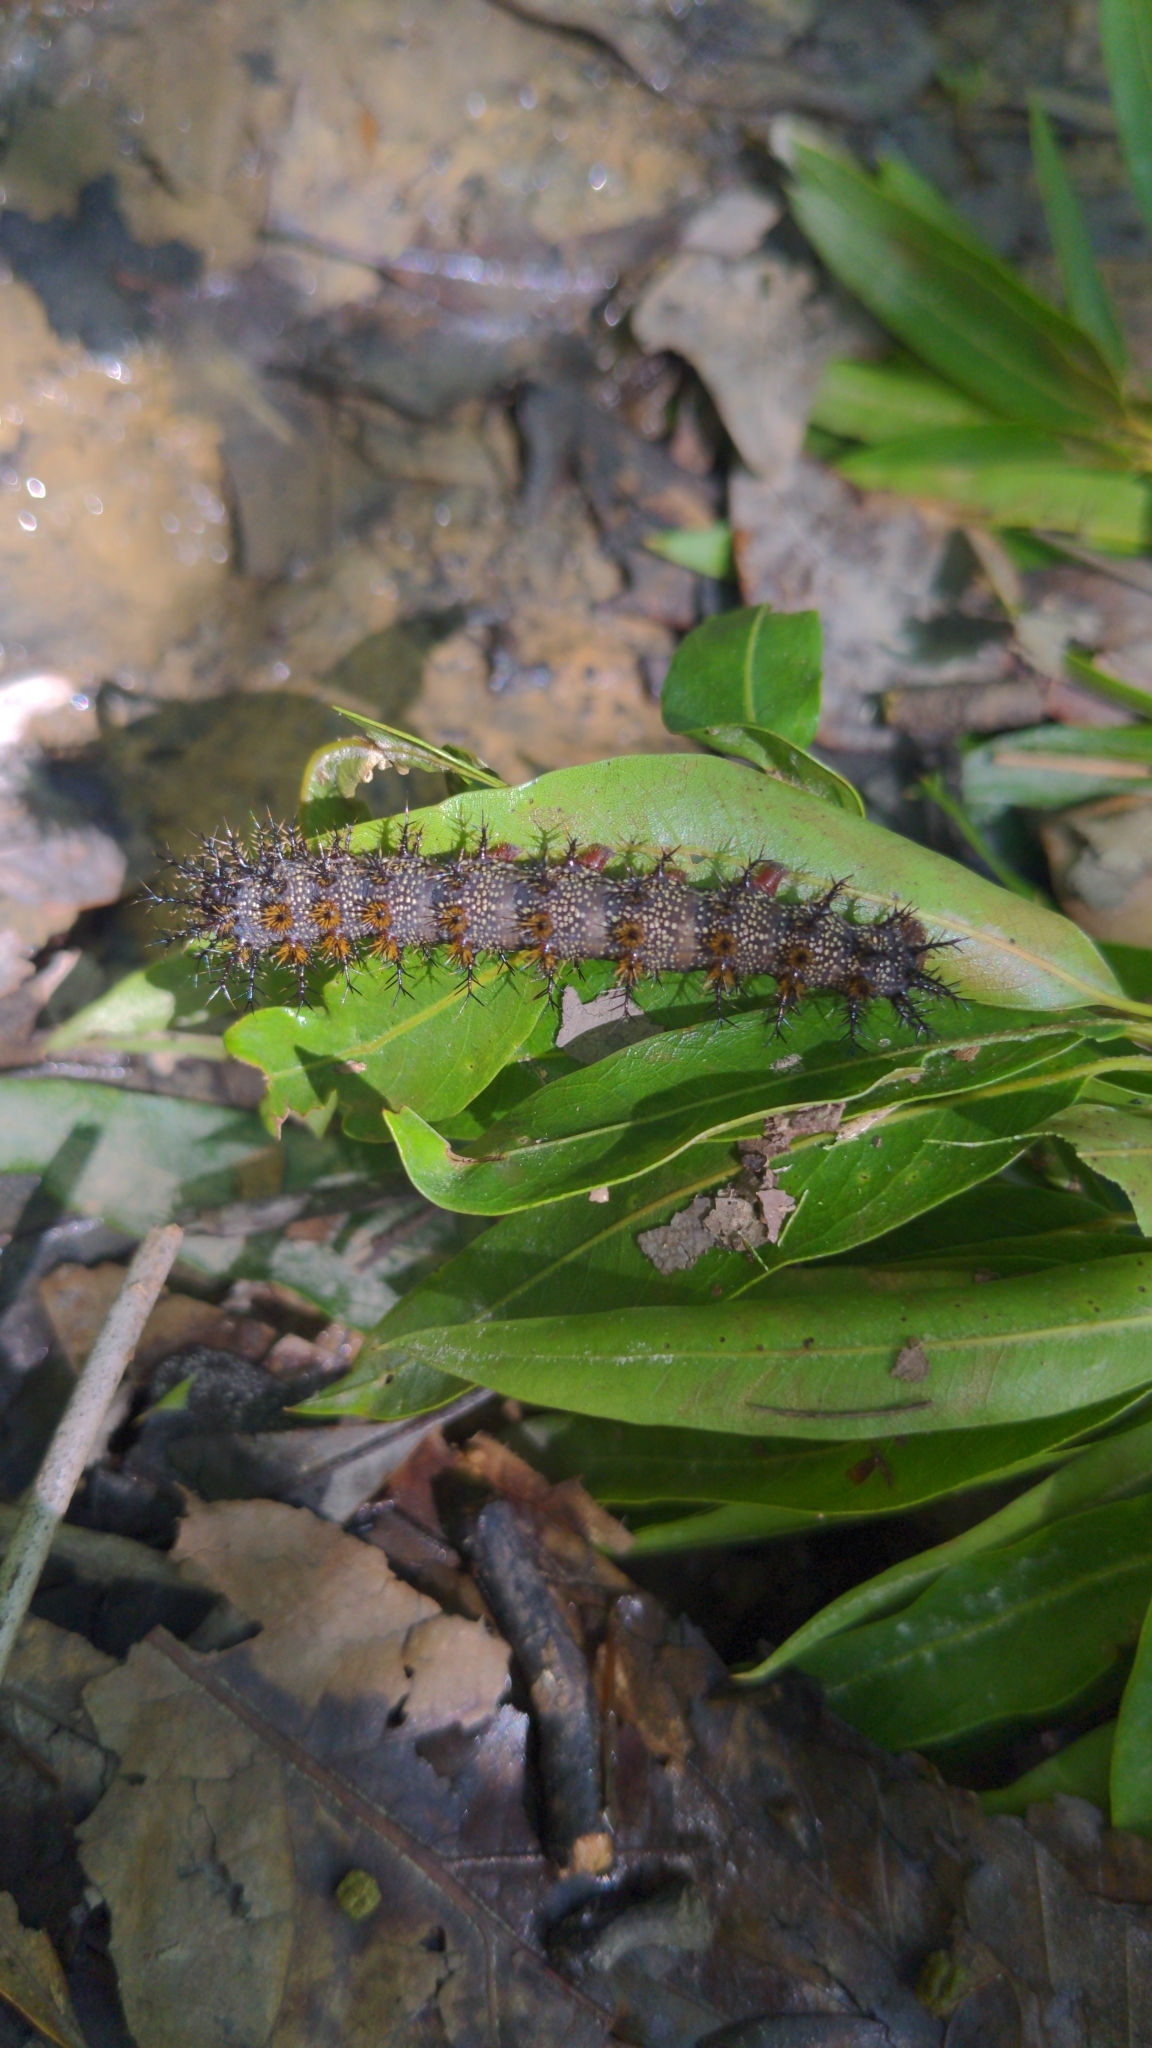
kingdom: Animalia
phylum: Arthropoda
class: Insecta
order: Lepidoptera
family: Saturniidae
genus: Hemileuca
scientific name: Hemileuca maia
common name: Eastern buckmoth
